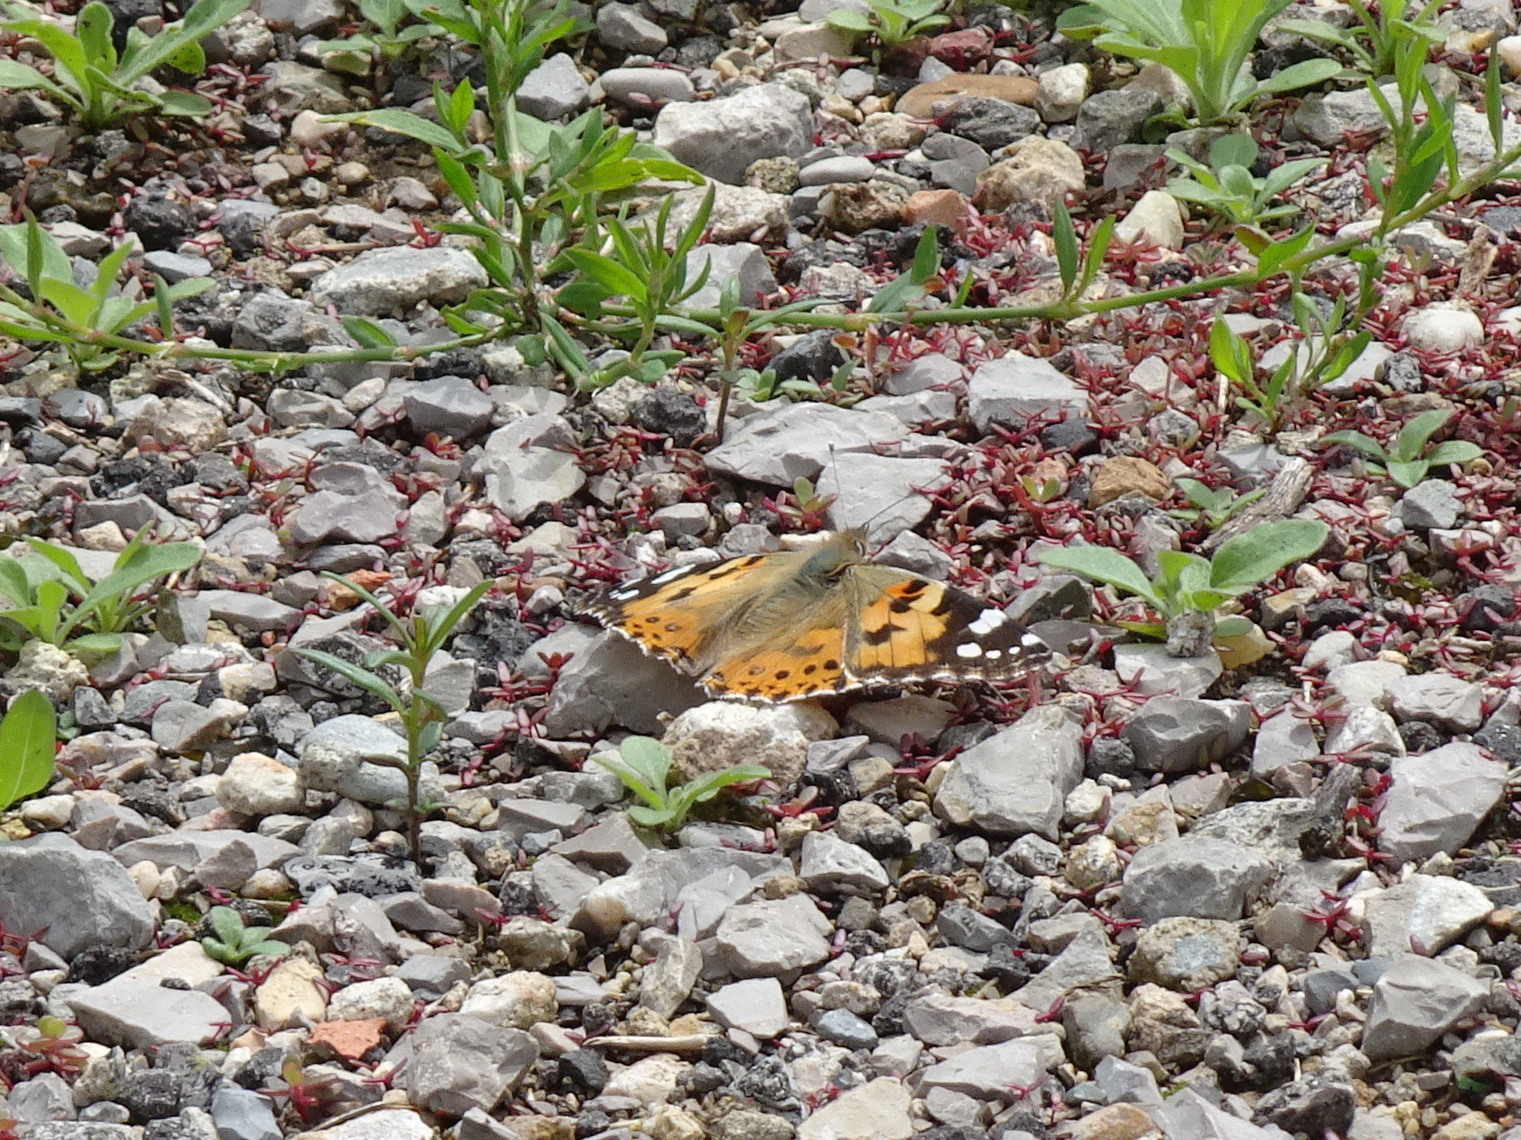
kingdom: Animalia
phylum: Arthropoda
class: Insecta
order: Lepidoptera
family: Nymphalidae
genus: Vanessa
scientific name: Vanessa cardui
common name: Painted lady
